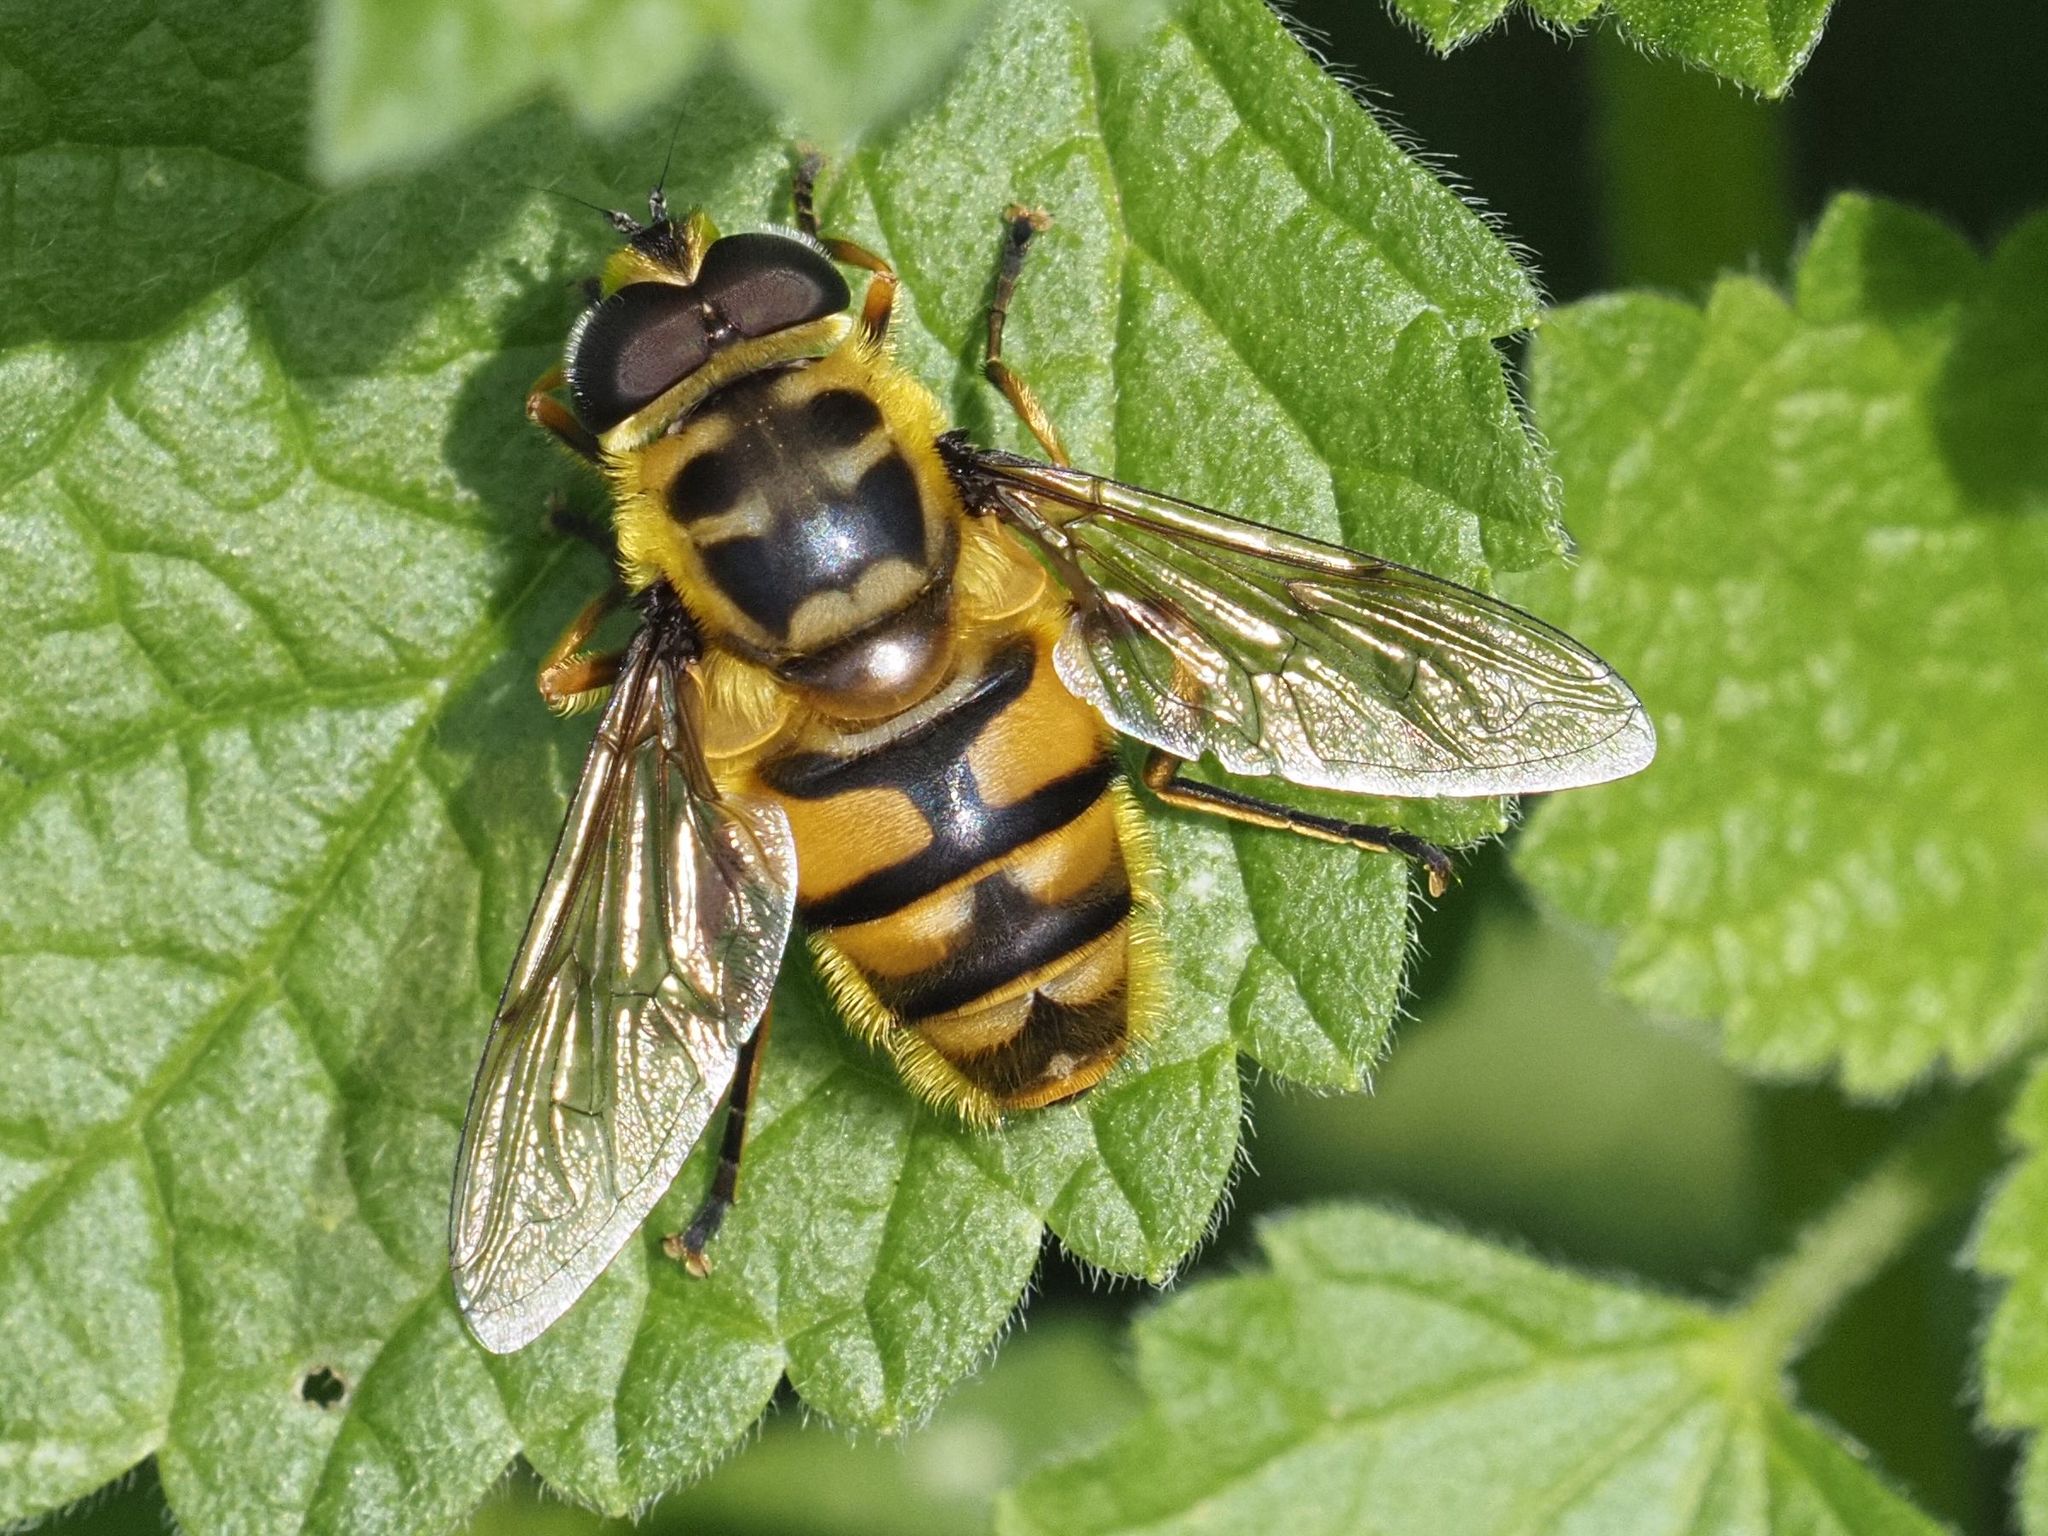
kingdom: Animalia
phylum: Arthropoda
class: Insecta
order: Diptera
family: Syrphidae
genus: Myathropa
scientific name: Myathropa florea
